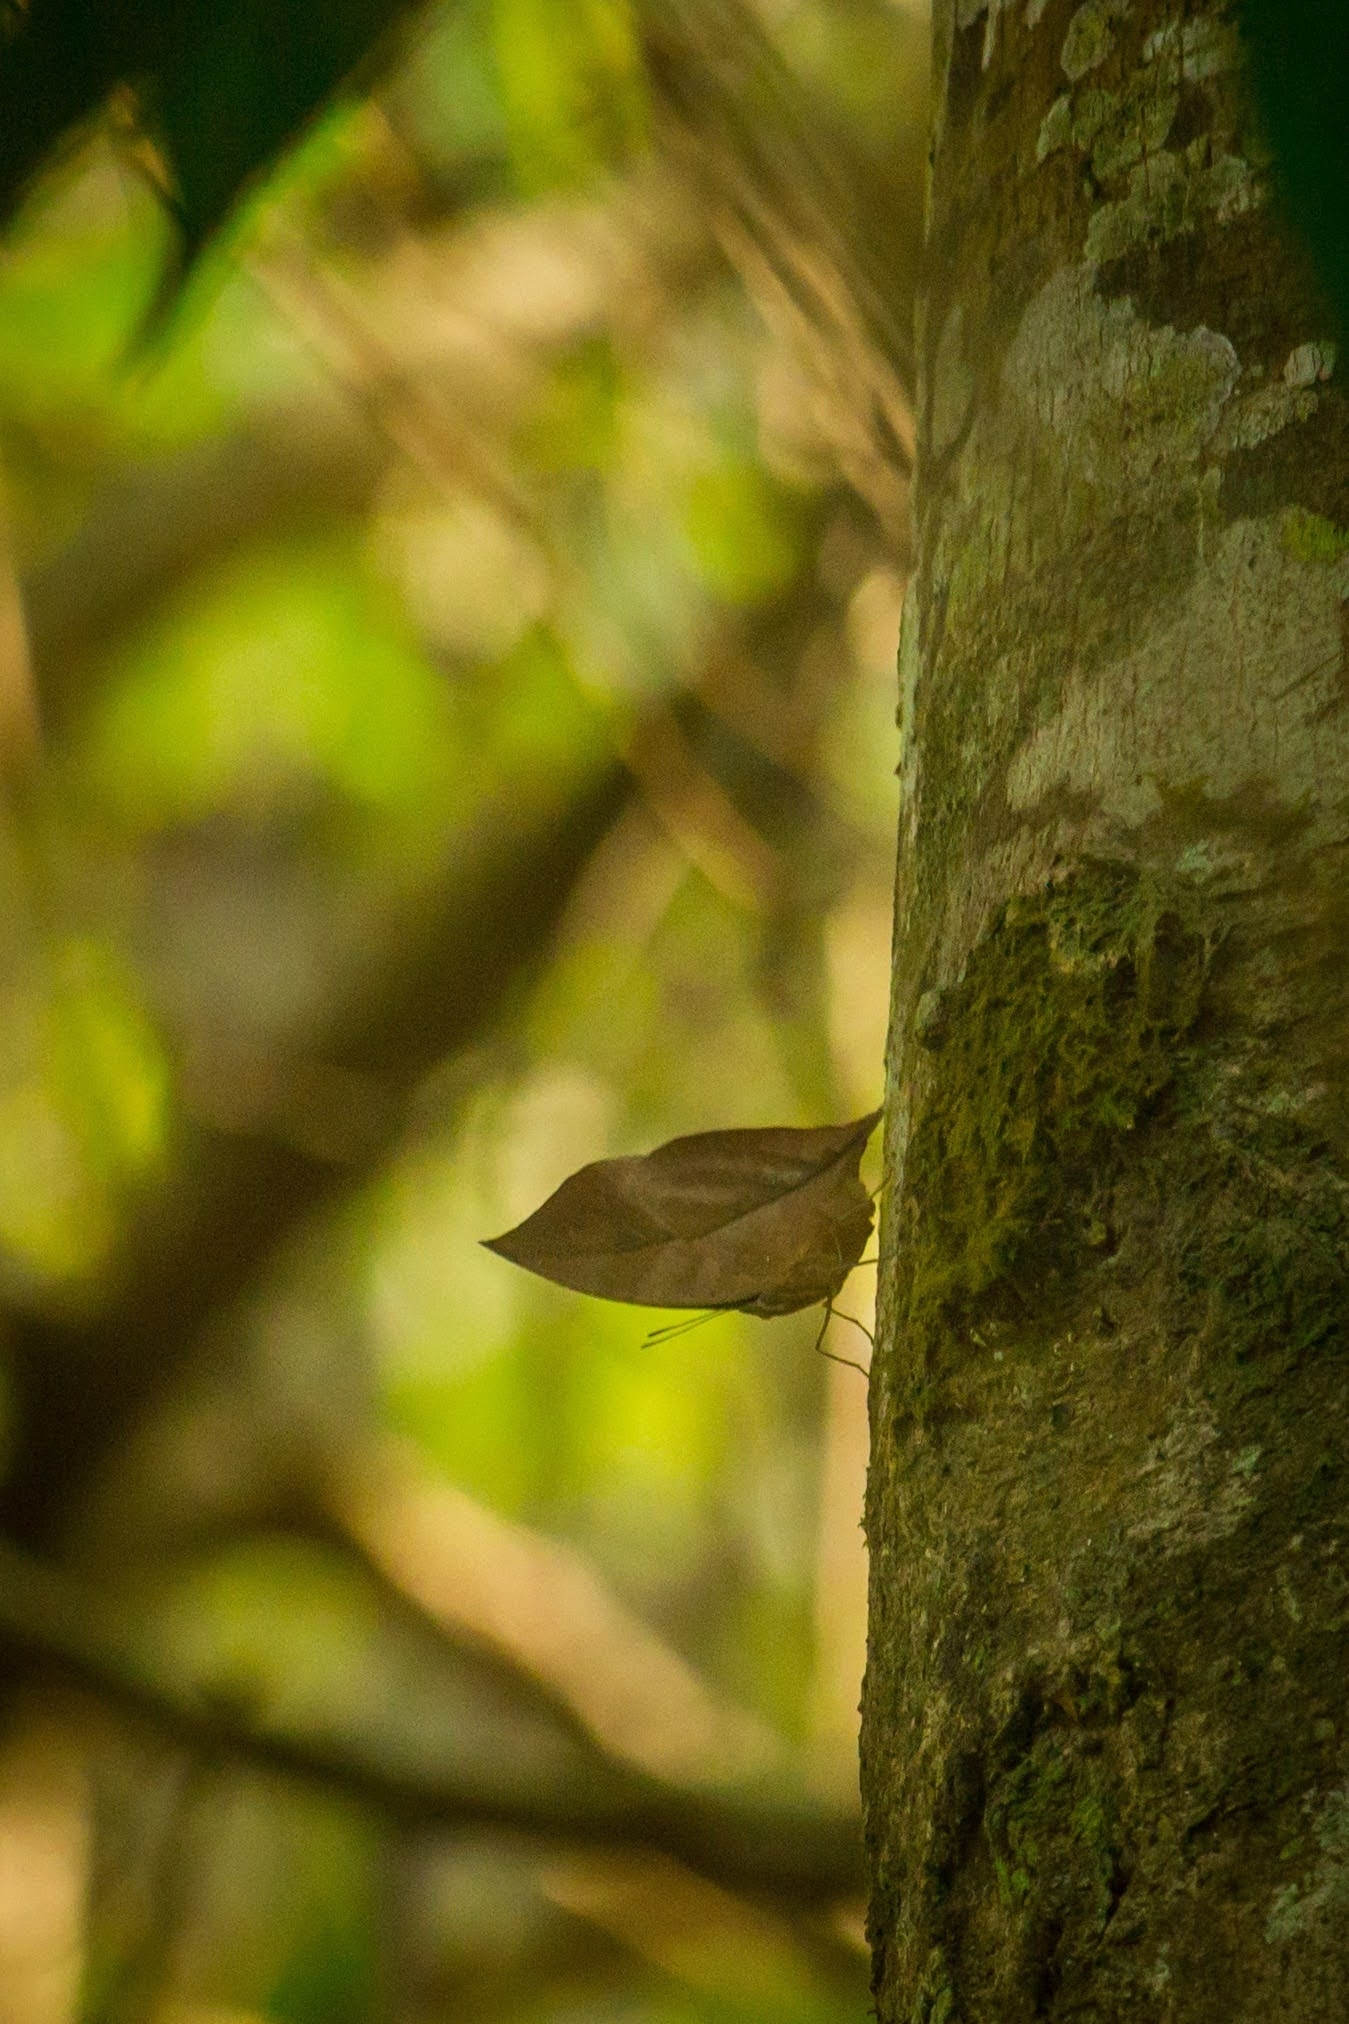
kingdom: Animalia
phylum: Arthropoda
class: Insecta
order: Lepidoptera
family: Nymphalidae
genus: Kallima
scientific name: Kallima horsfieldii
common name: Sahyadri blue oakleaf
